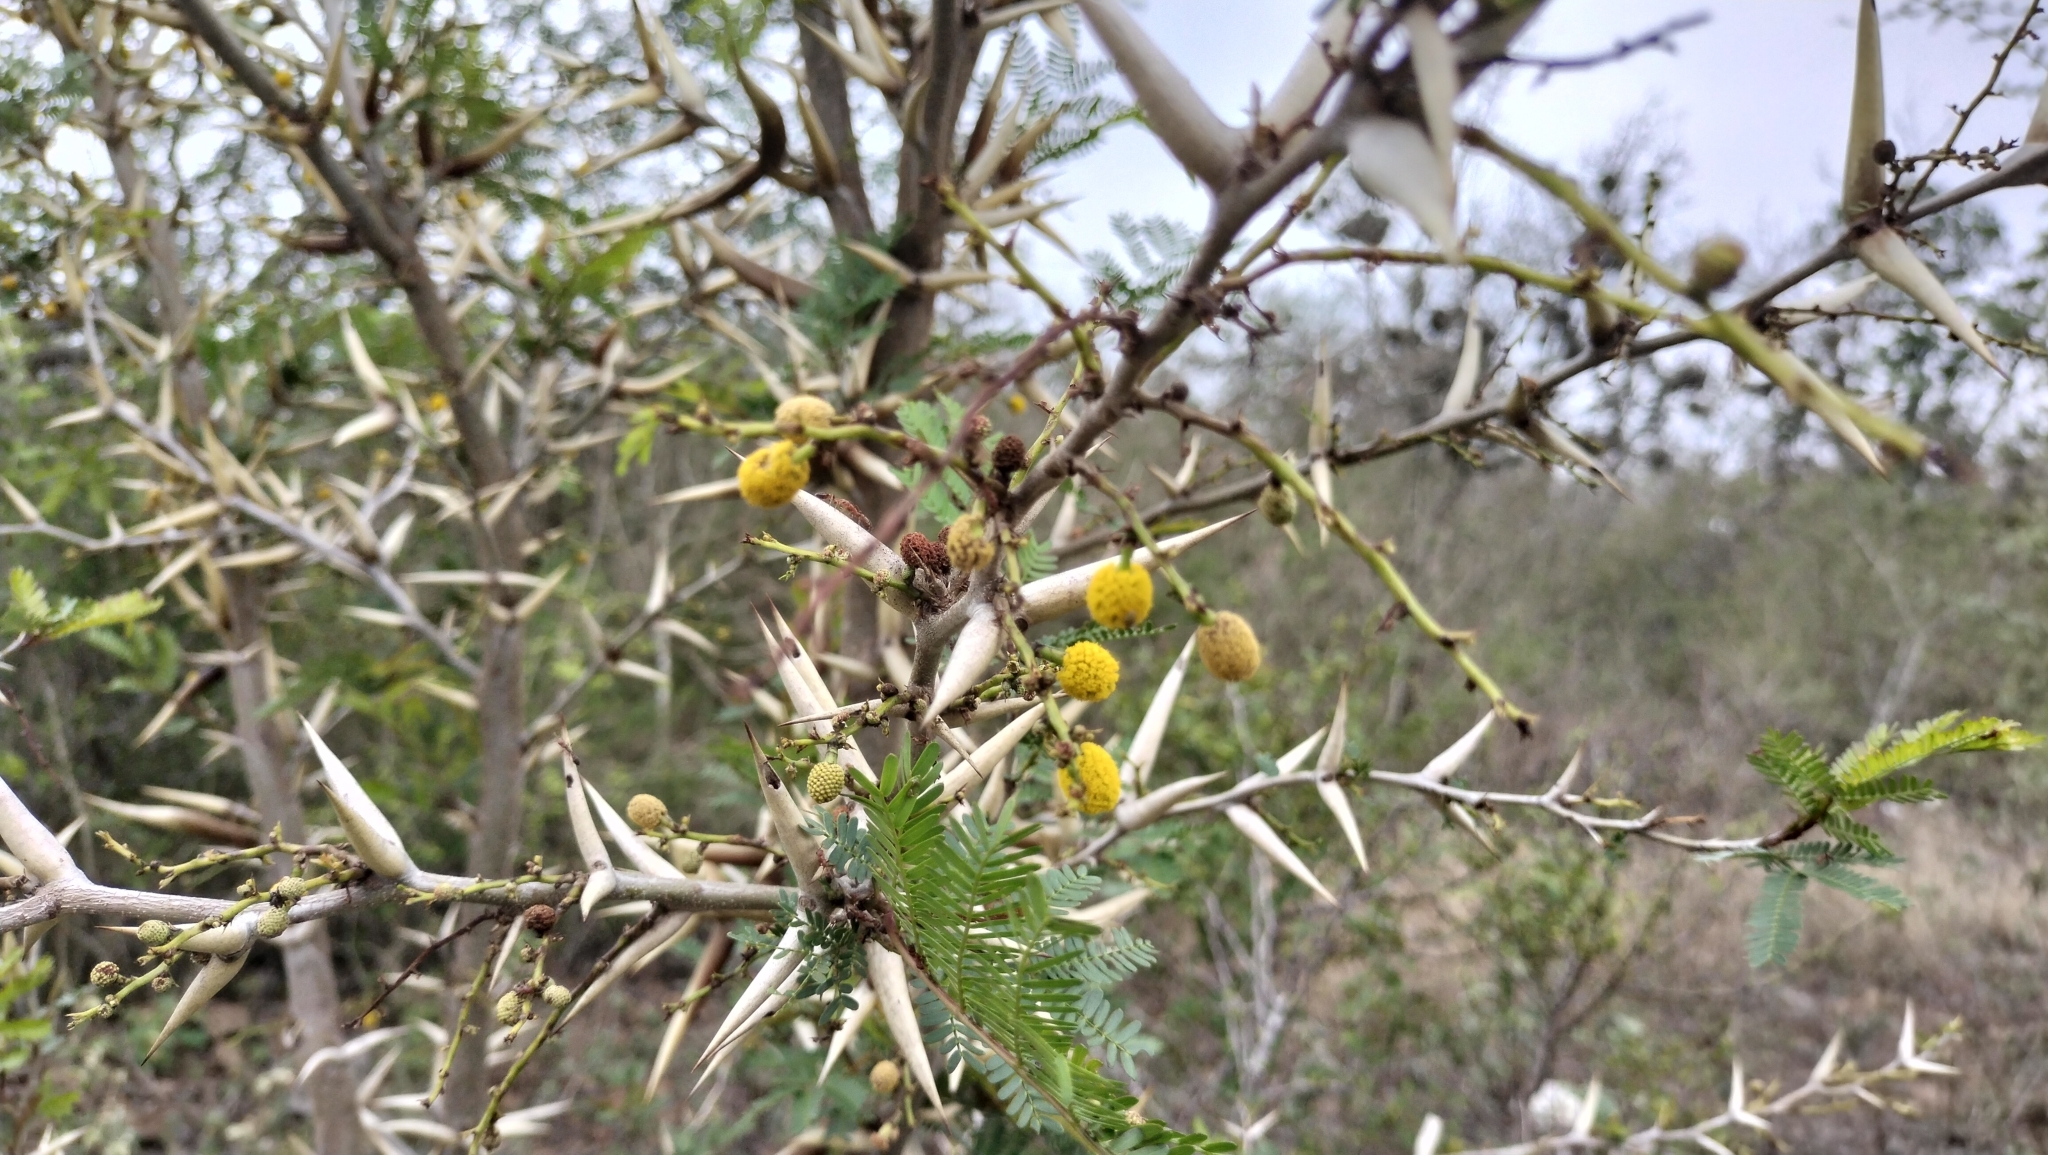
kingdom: Plantae
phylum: Tracheophyta
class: Magnoliopsida
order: Fabales
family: Fabaceae
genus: Vachellia
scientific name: Vachellia cornigera
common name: Bullhorn wattle
